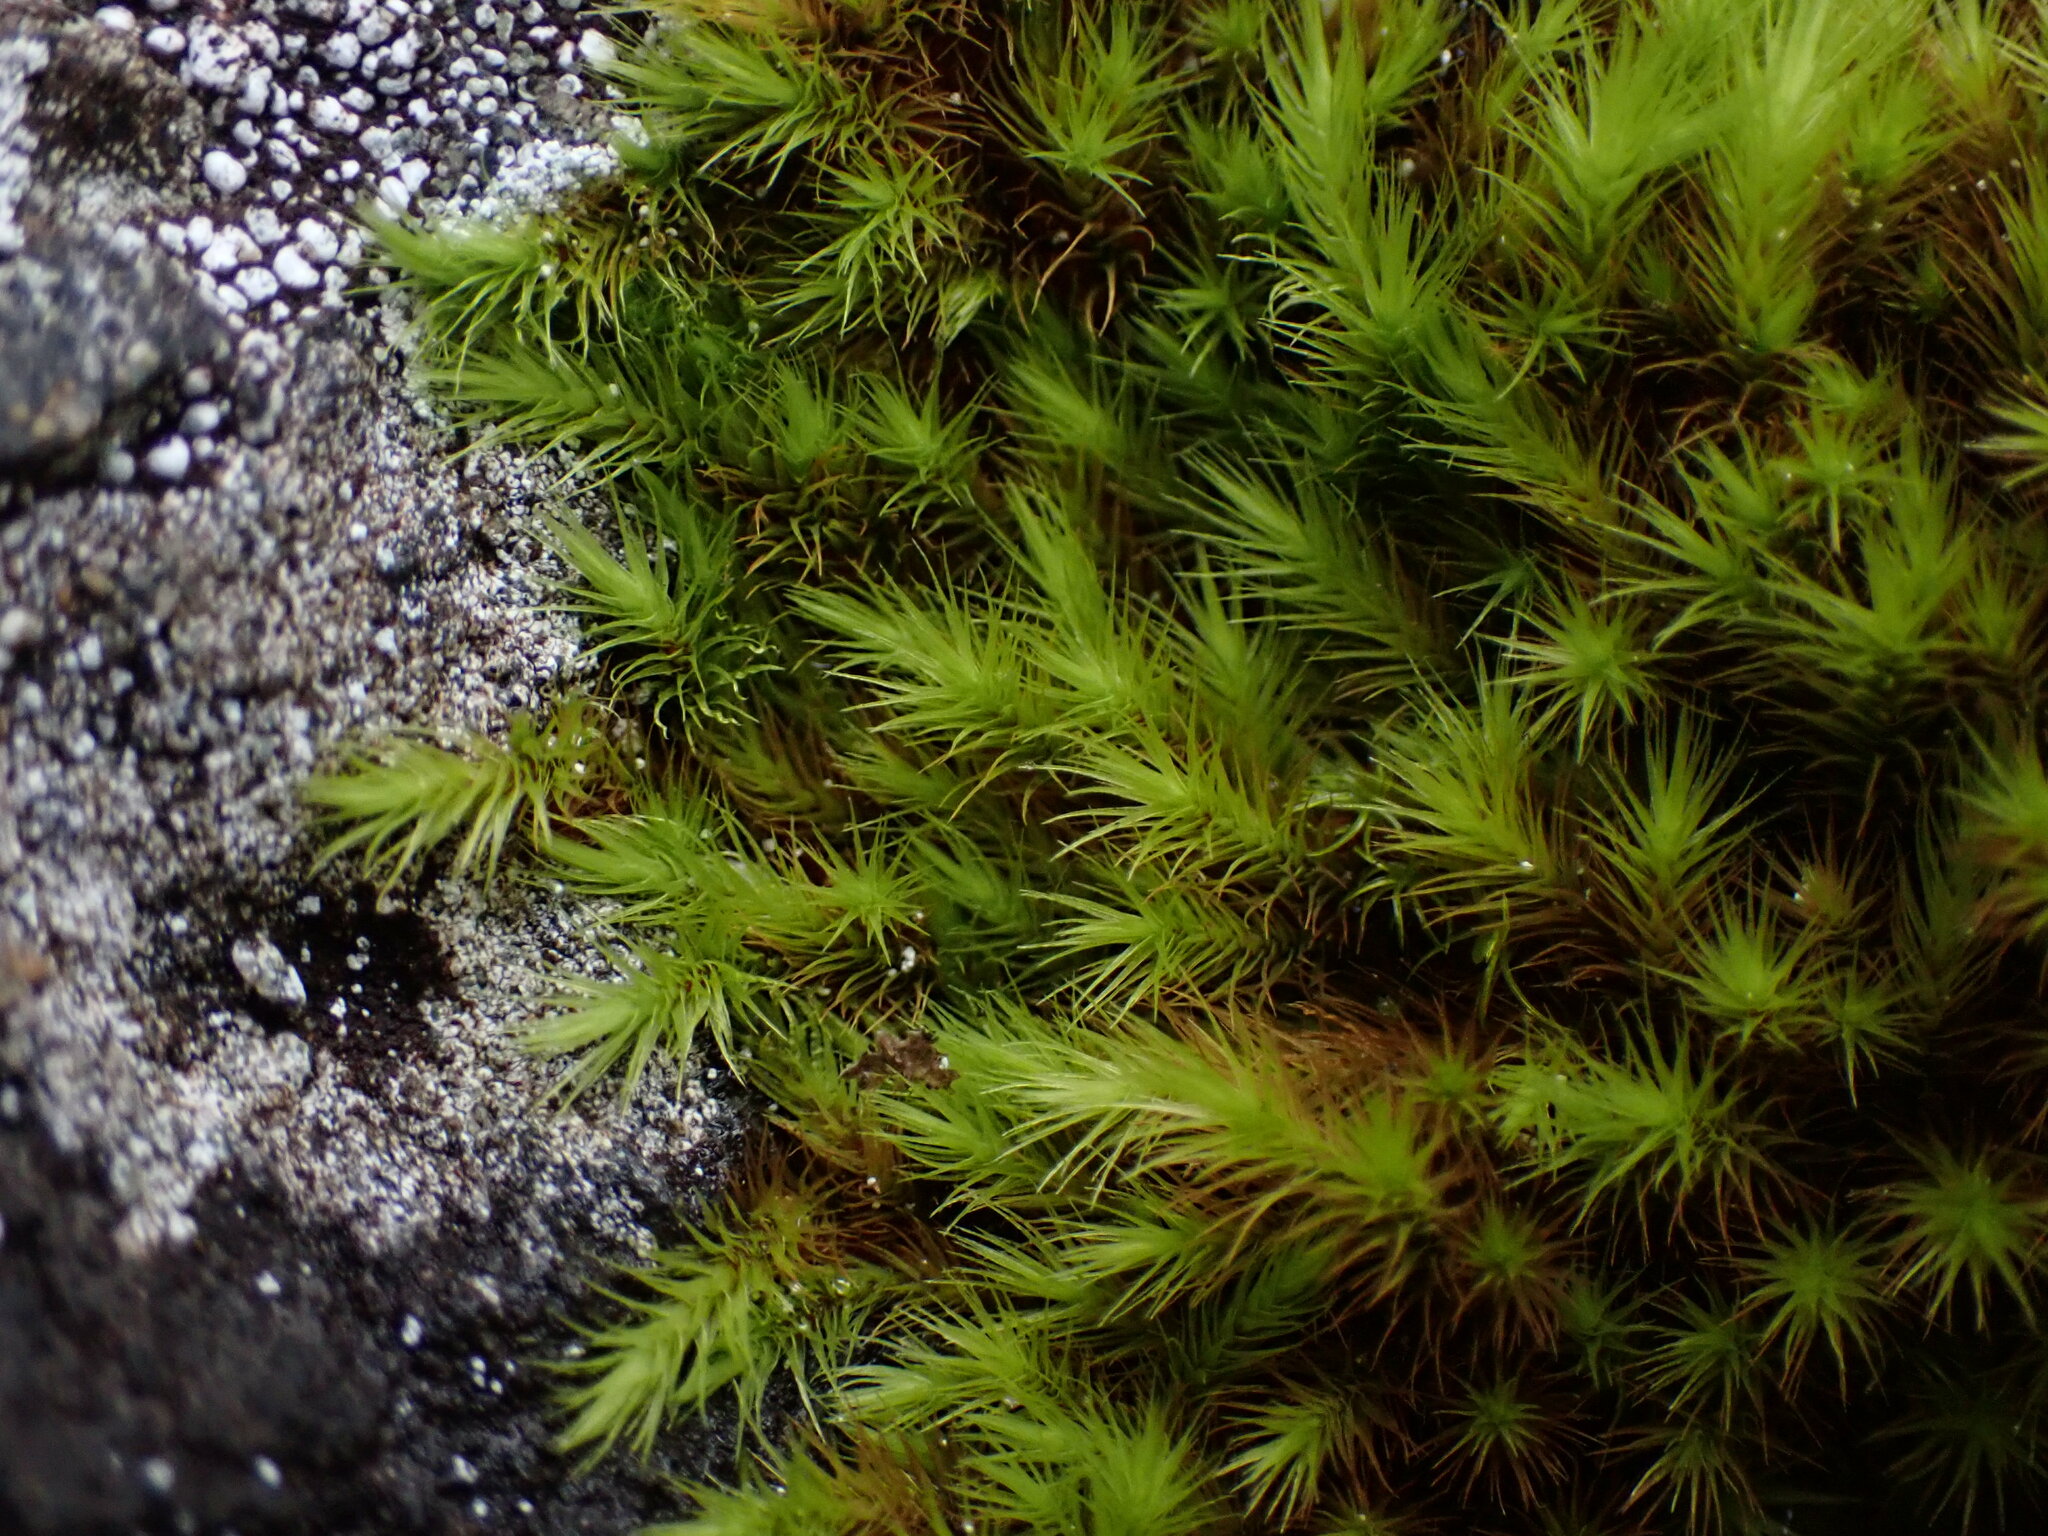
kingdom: Plantae
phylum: Bryophyta
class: Bryopsida
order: Bartramiales
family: Bartramiaceae
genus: Anacolia
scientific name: Anacolia menziesii
